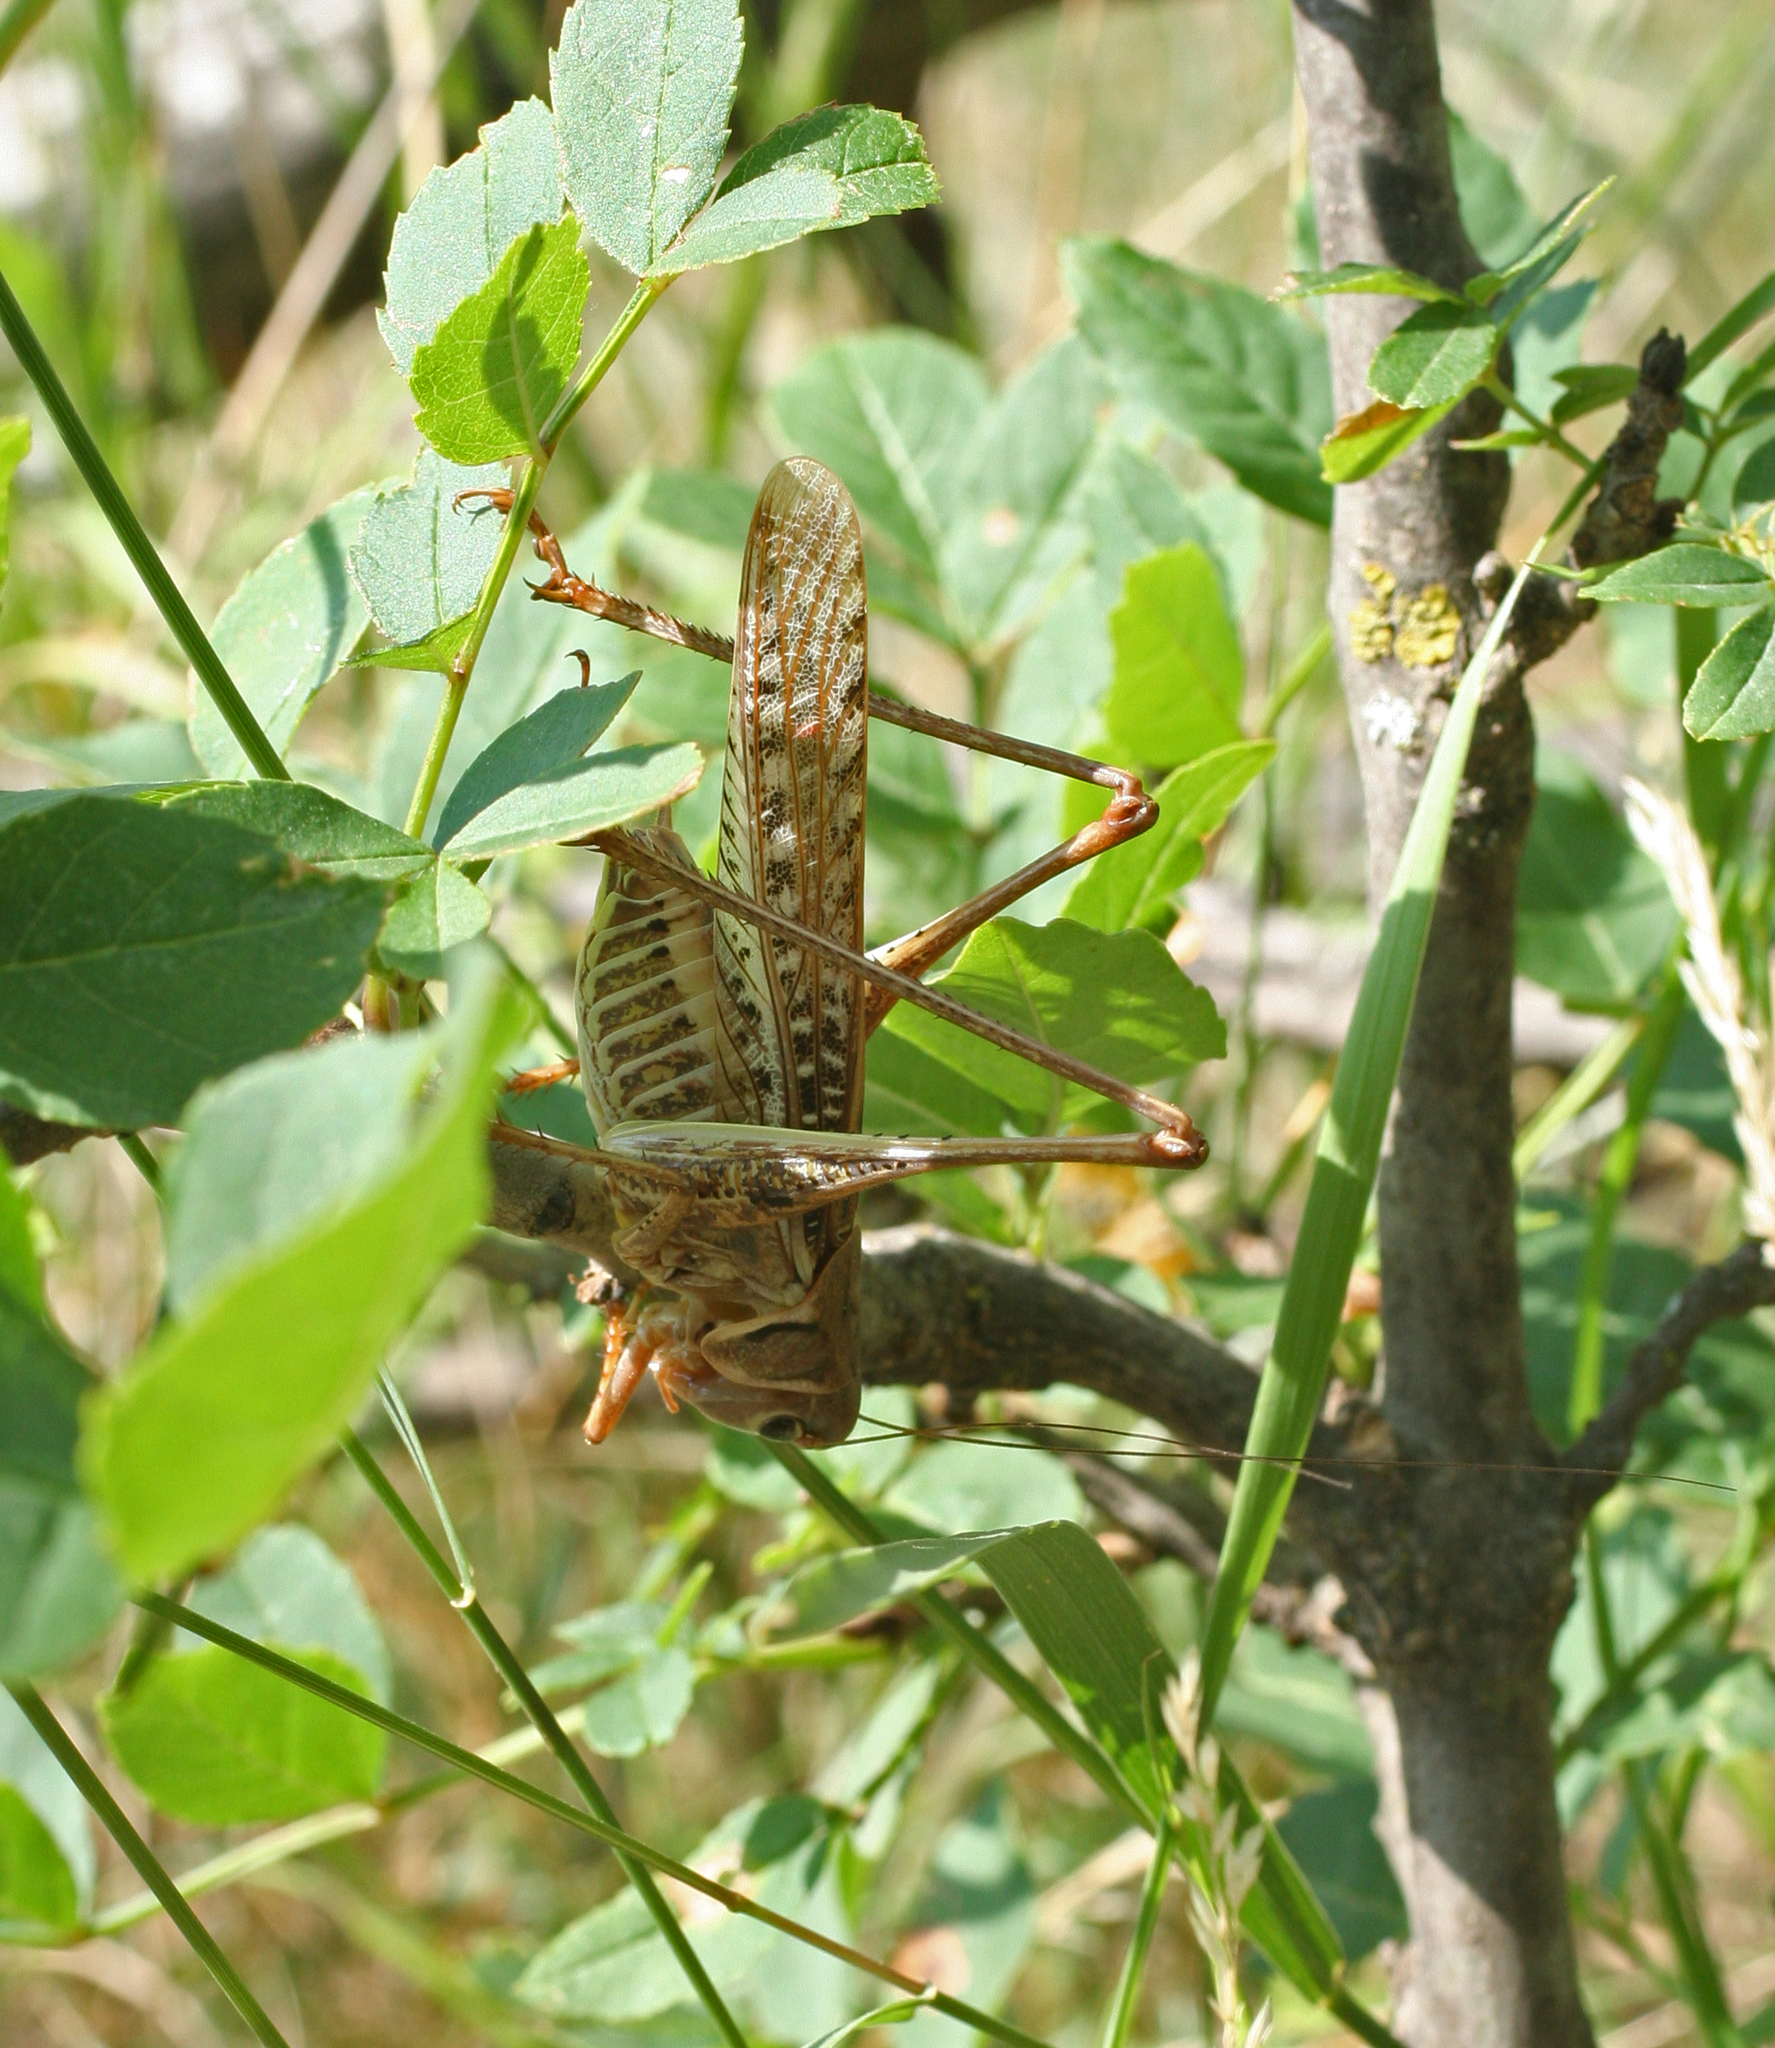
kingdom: Animalia
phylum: Arthropoda
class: Insecta
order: Orthoptera
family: Tettigoniidae
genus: Decticus
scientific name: Decticus albifrons
